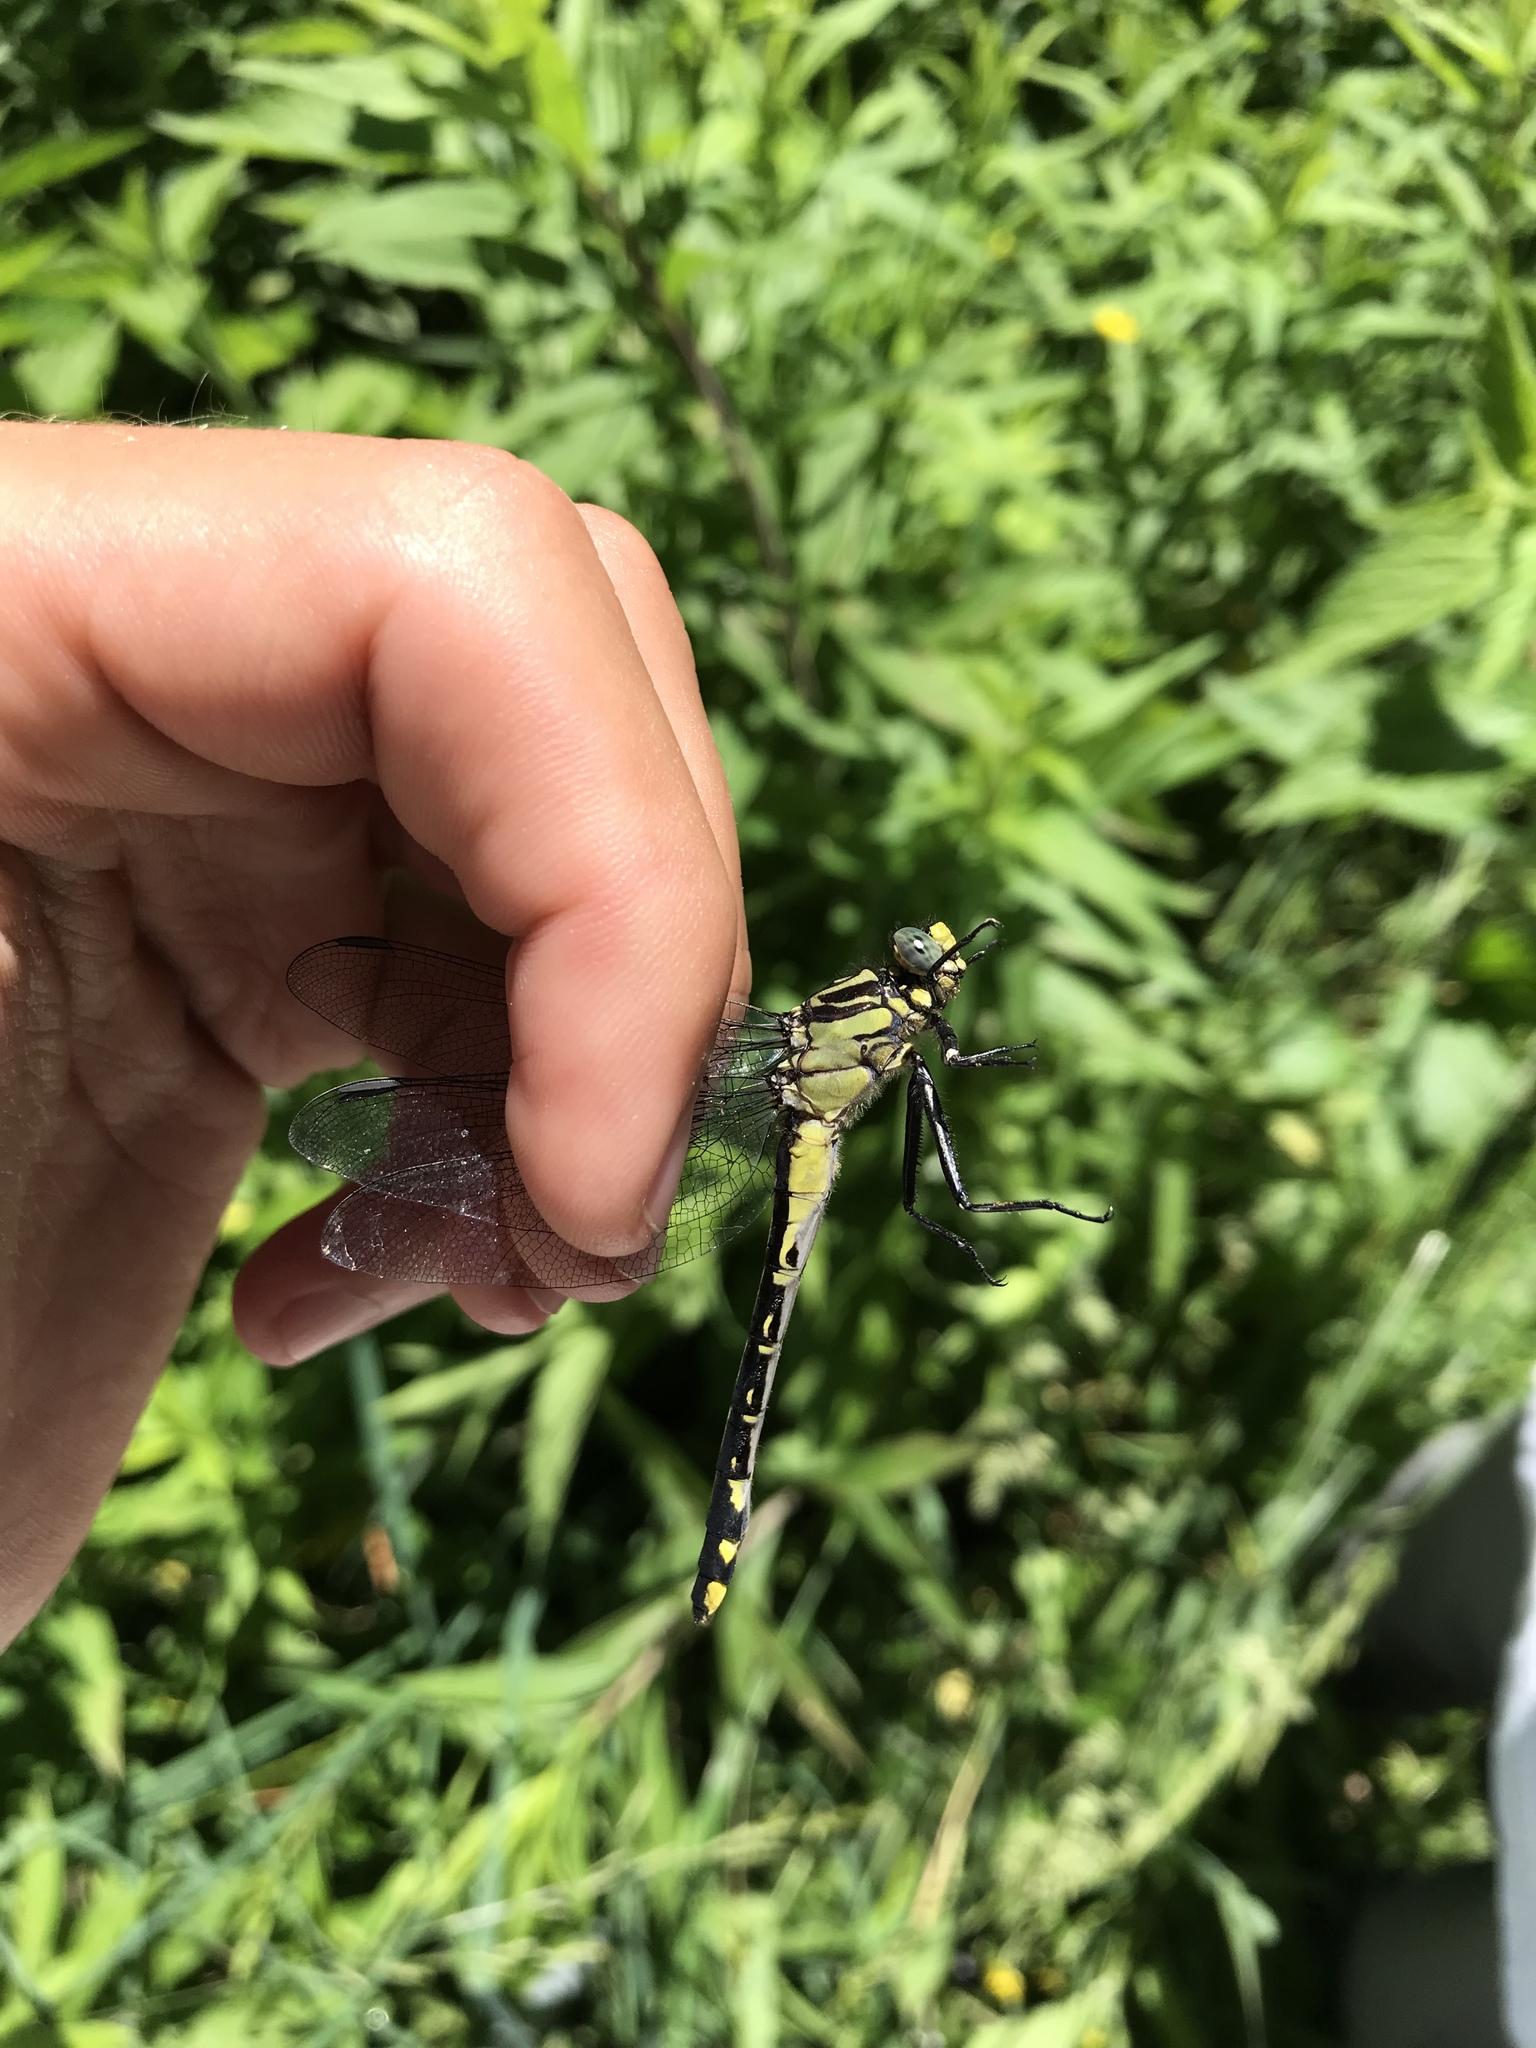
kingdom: Animalia
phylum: Arthropoda
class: Insecta
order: Odonata
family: Gomphidae
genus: Gomphurus
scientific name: Gomphurus fraternus
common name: Midland clubtail
